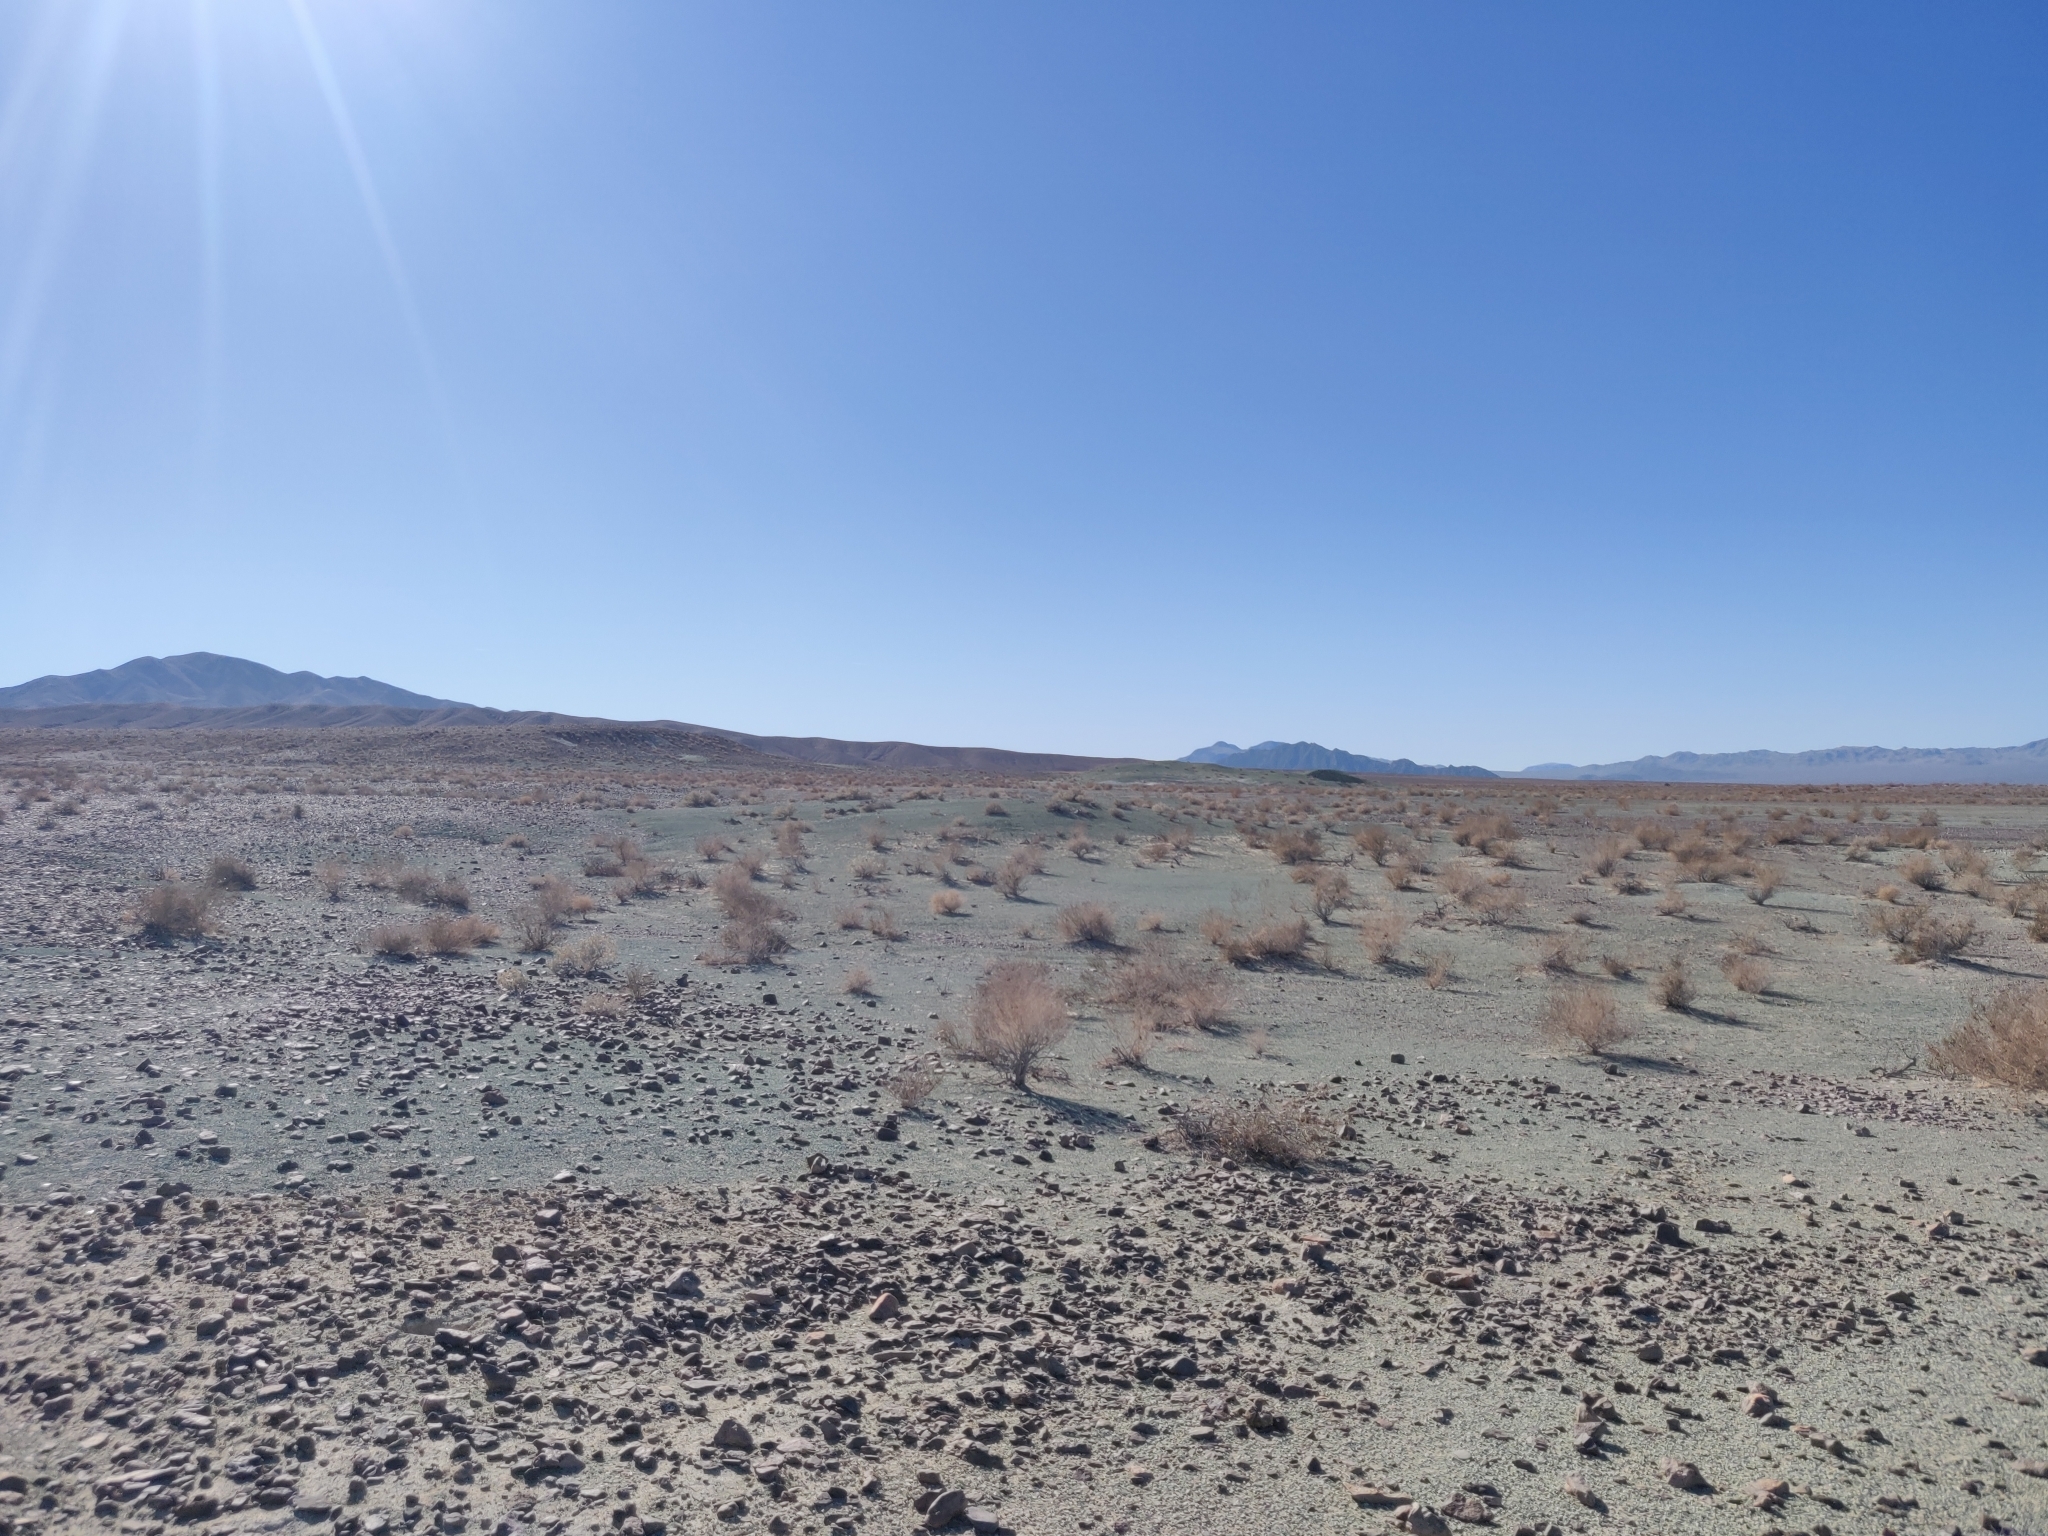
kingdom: Plantae
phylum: Tracheophyta
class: Magnoliopsida
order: Caryophyllales
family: Amaranthaceae
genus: Atriplex
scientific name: Atriplex hymenelytra
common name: Desert-holly
